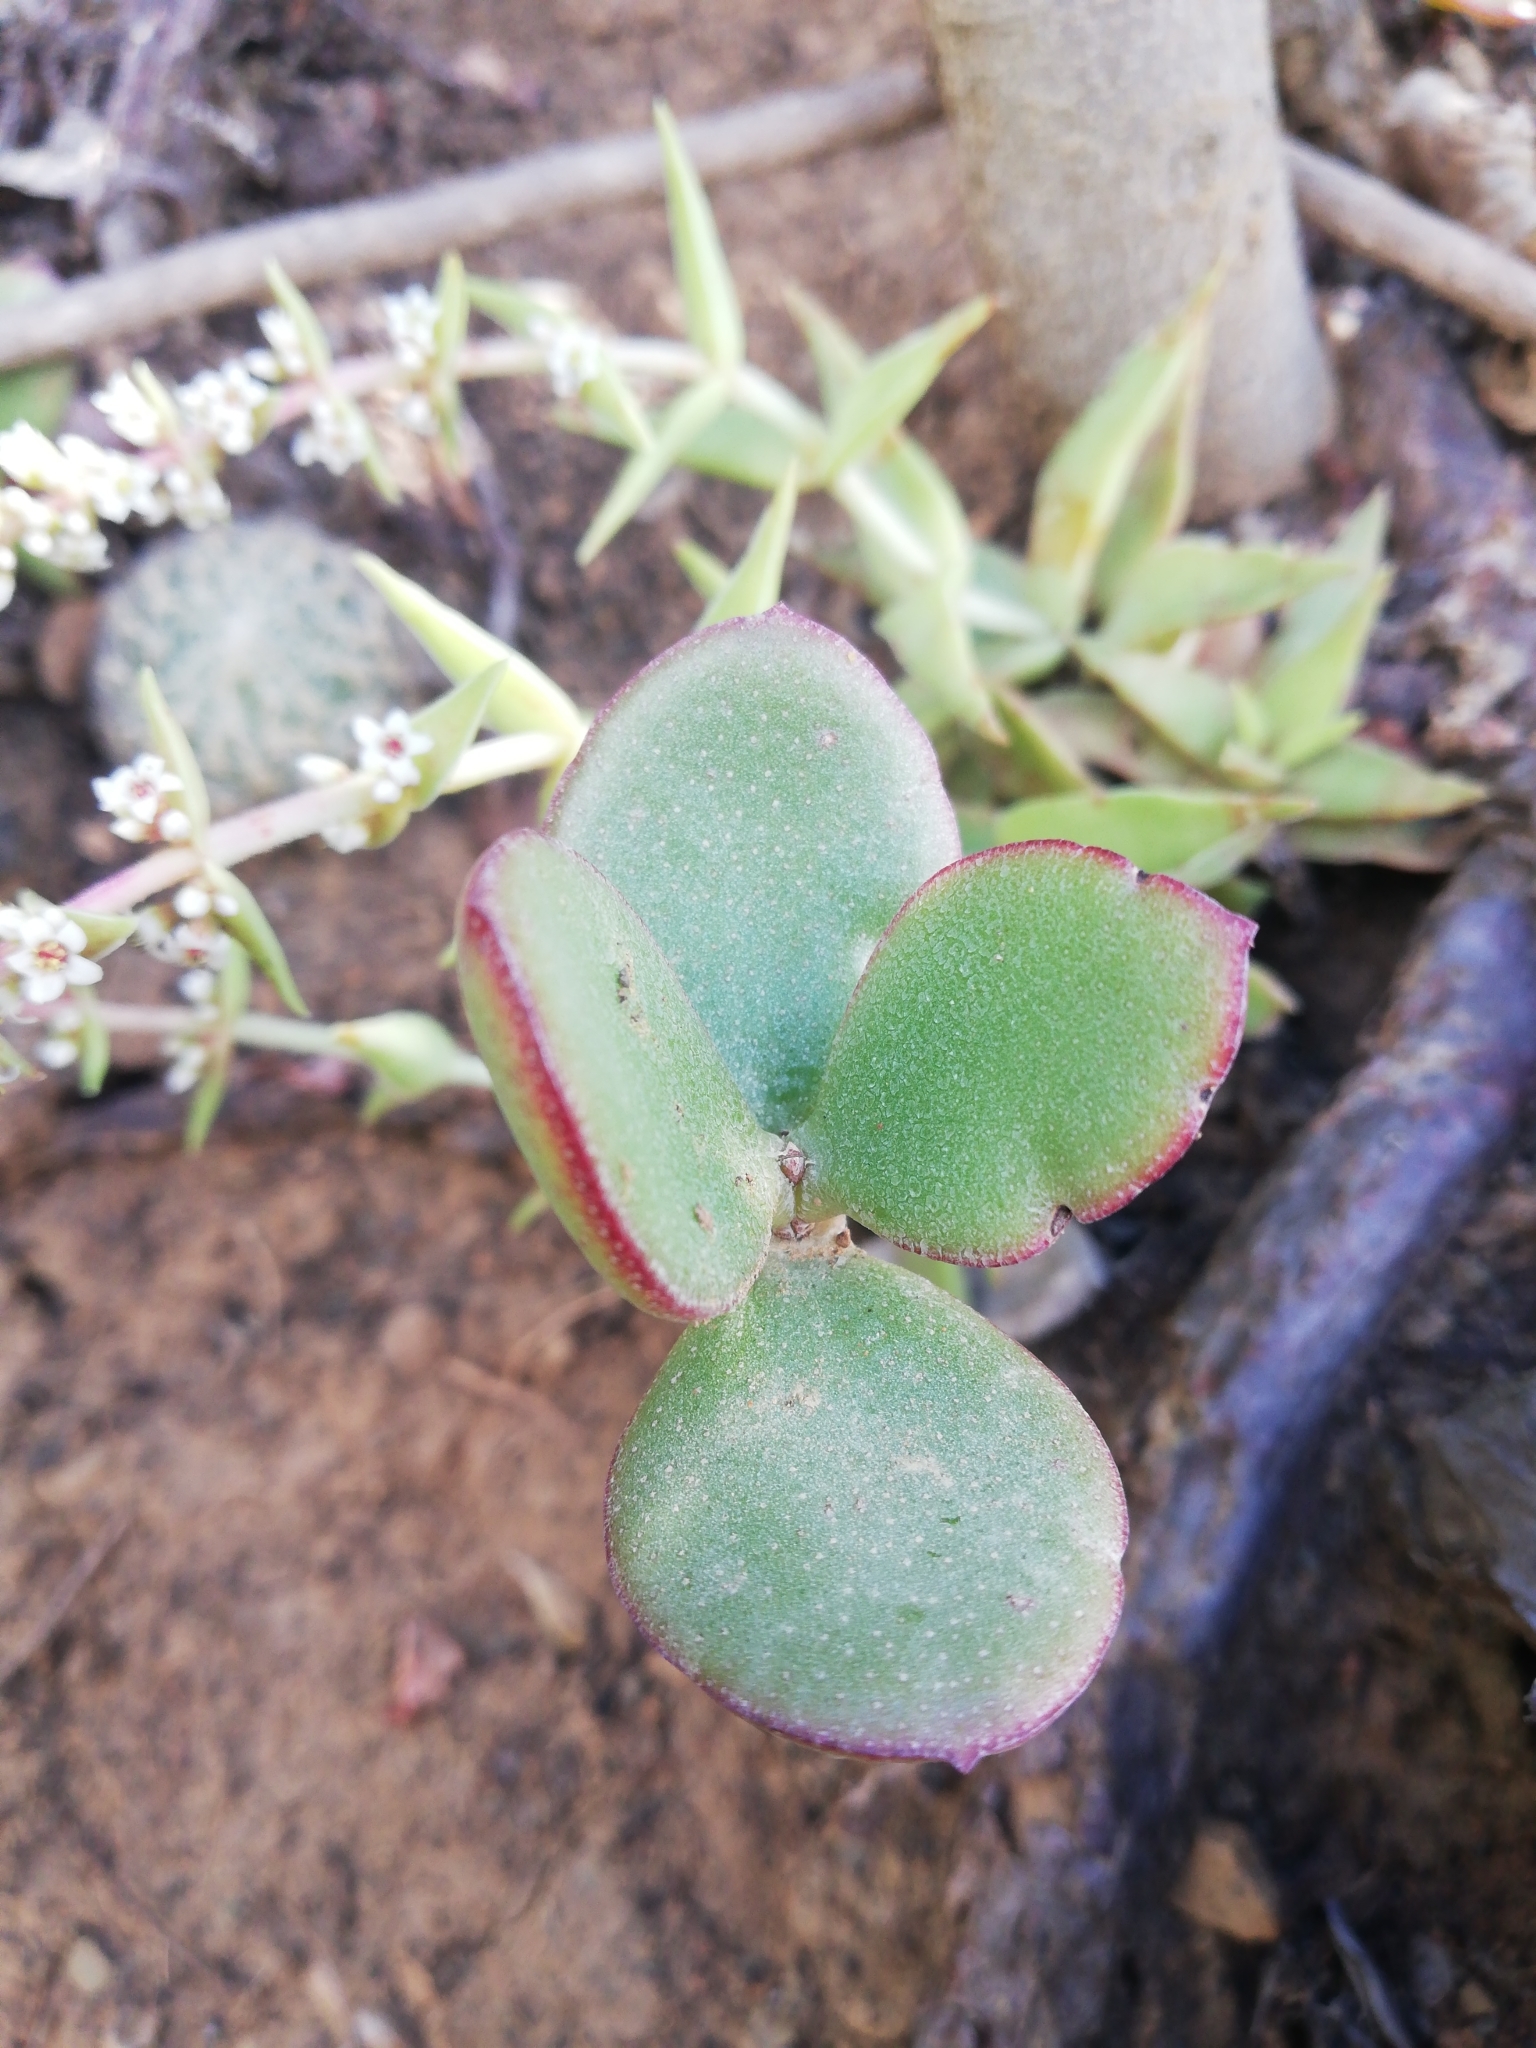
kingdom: Plantae
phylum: Tracheophyta
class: Magnoliopsida
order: Saxifragales
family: Crassulaceae
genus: Crassula
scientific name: Crassula ovata
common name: Jade plant
